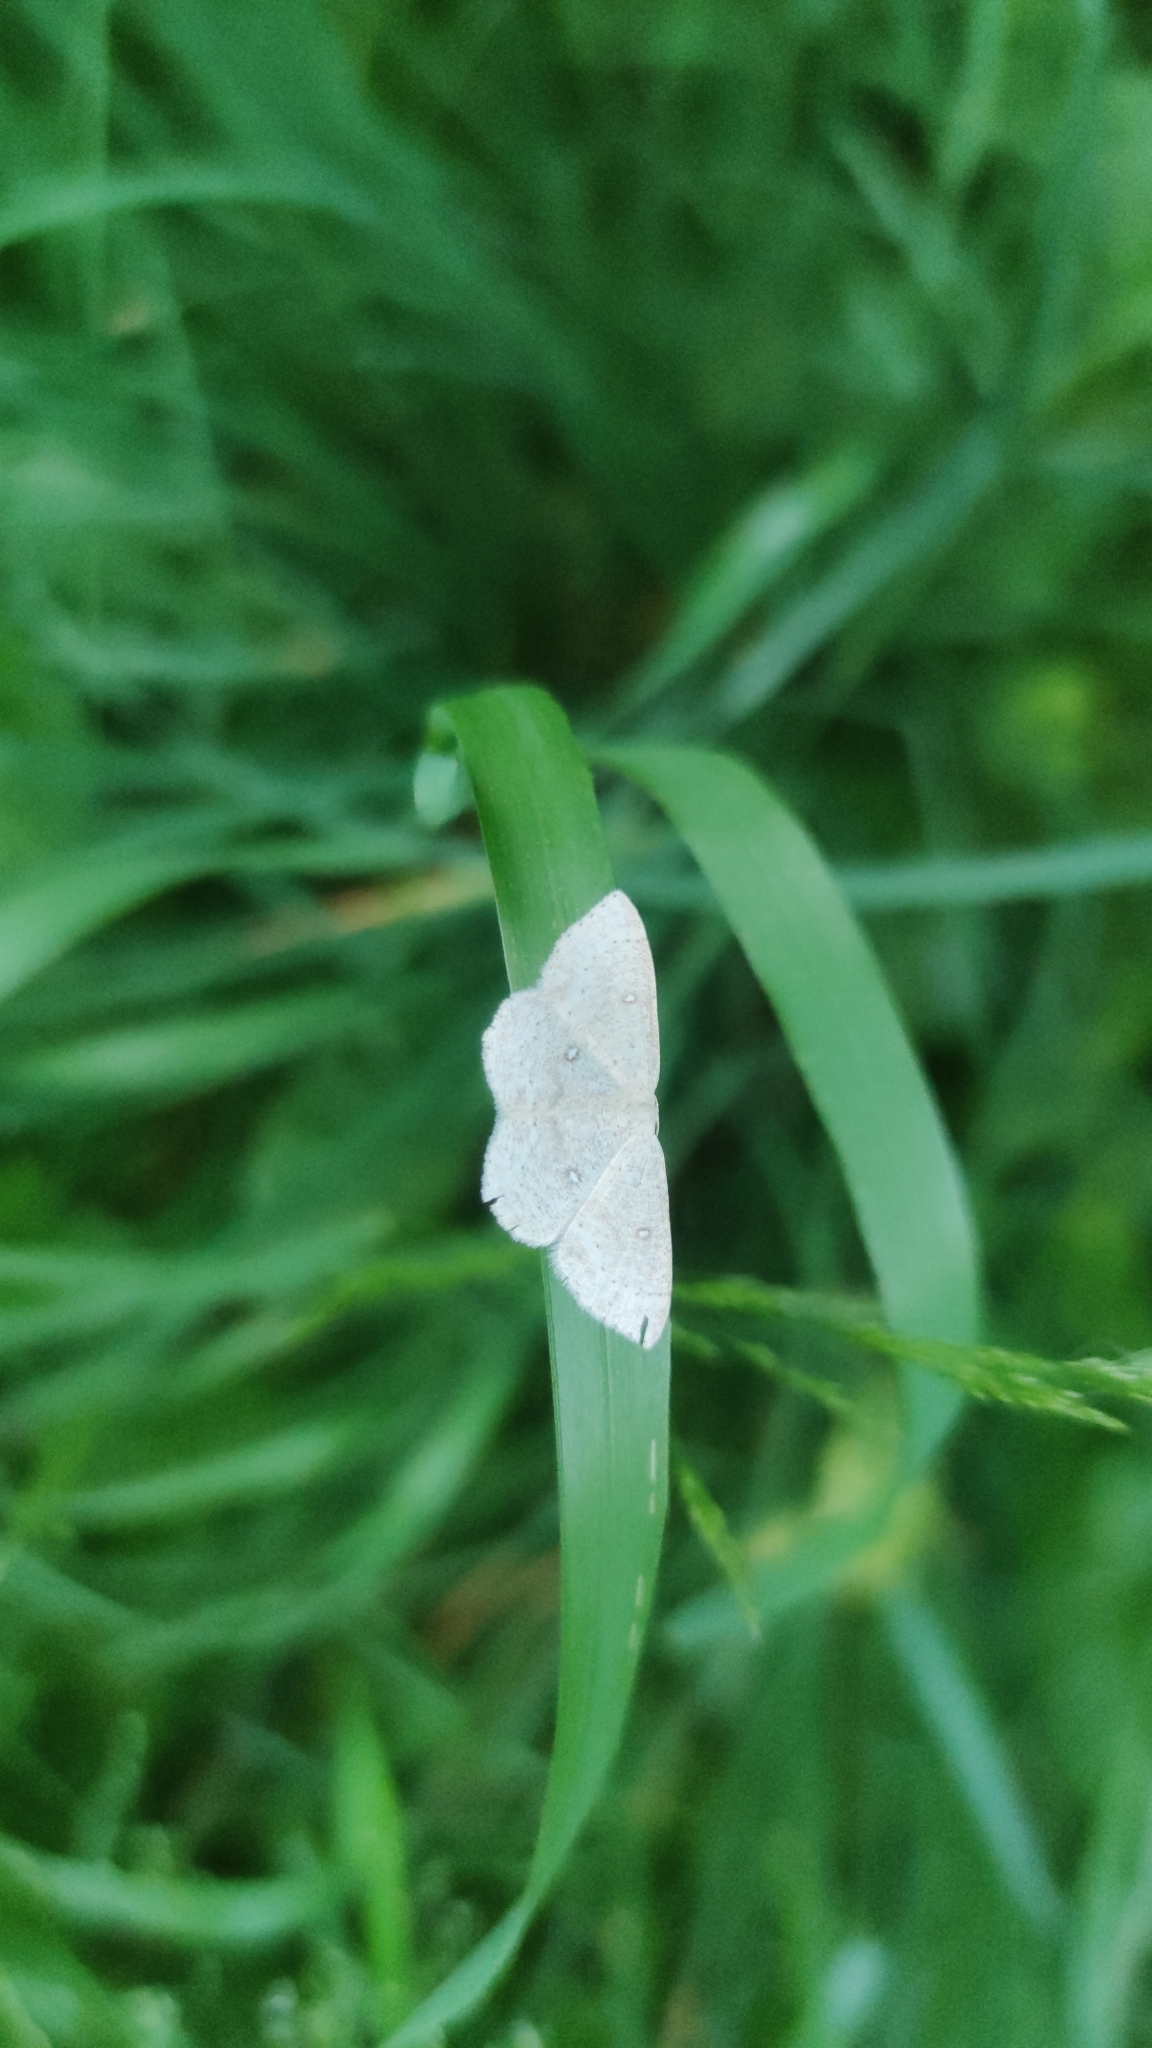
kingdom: Animalia
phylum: Arthropoda
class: Insecta
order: Lepidoptera
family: Geometridae
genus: Cyclophora
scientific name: Cyclophora albipunctata
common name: Birch mocha
